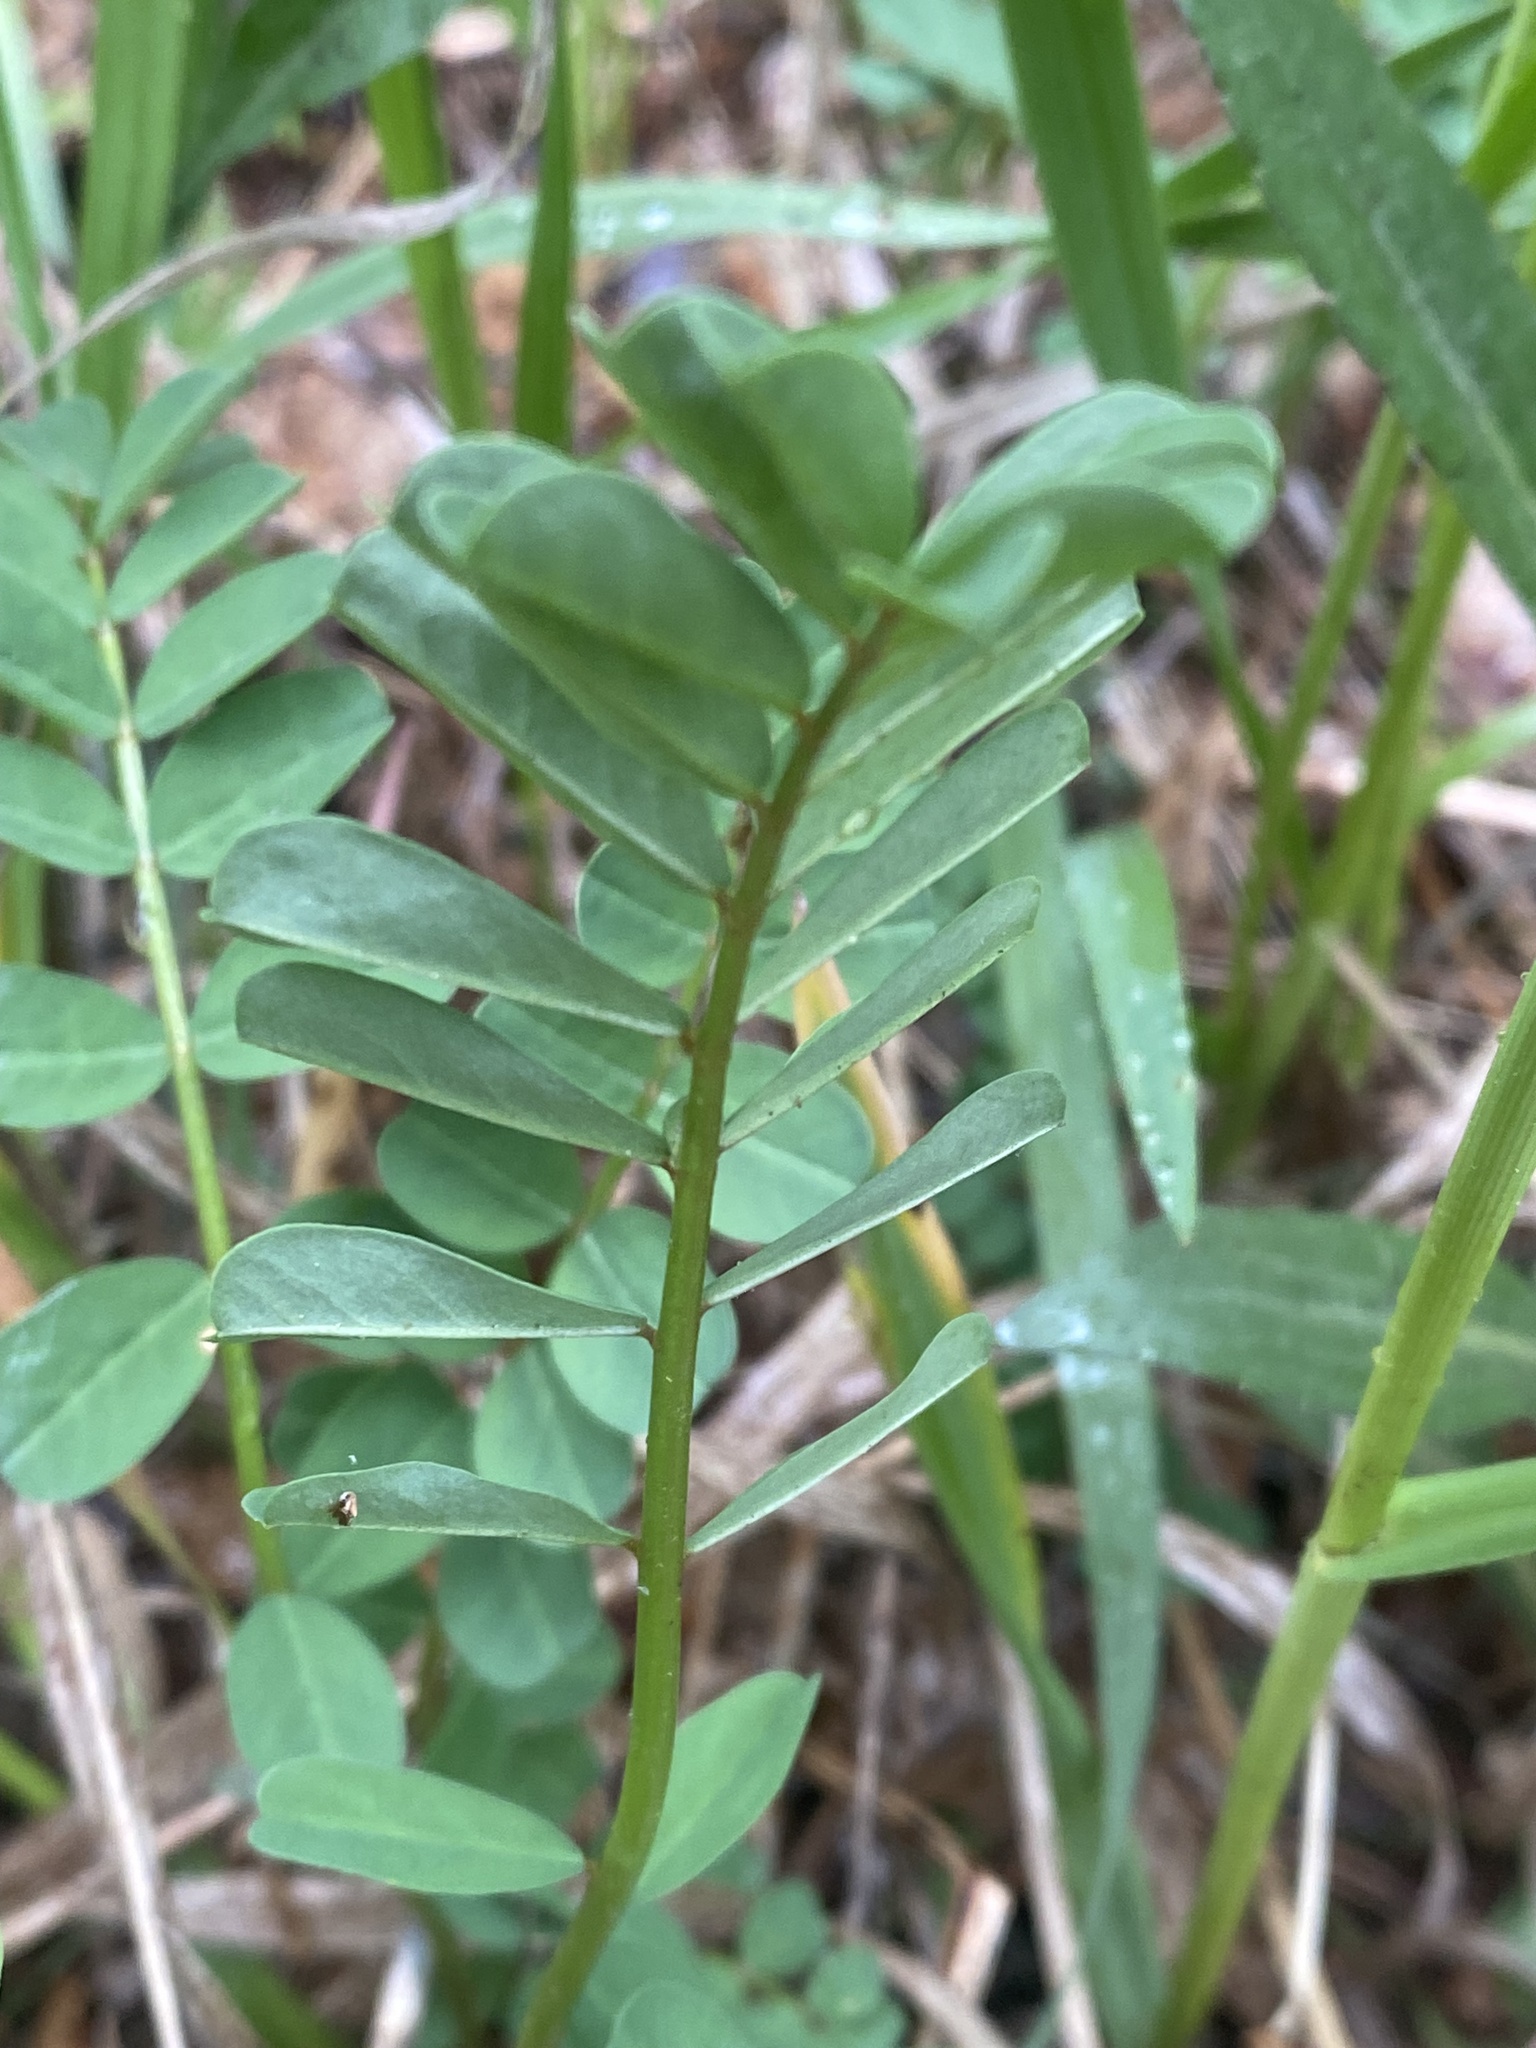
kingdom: Plantae
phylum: Tracheophyta
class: Magnoliopsida
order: Fabales
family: Fabaceae
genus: Coronilla
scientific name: Coronilla varia
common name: Crownvetch
